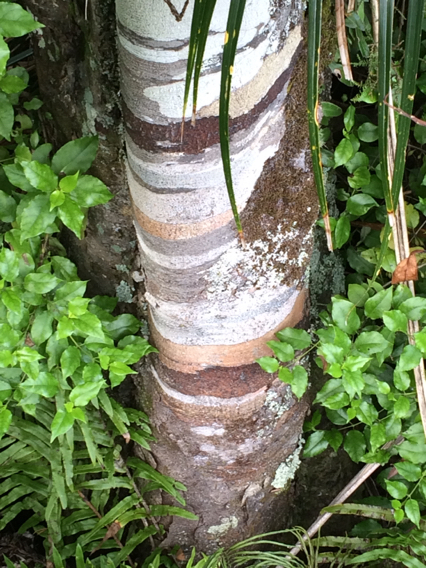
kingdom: Plantae
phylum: Tracheophyta
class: Pinopsida
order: Pinales
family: Podocarpaceae
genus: Dacrycarpus
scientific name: Dacrycarpus dacrydioides
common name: White pine
